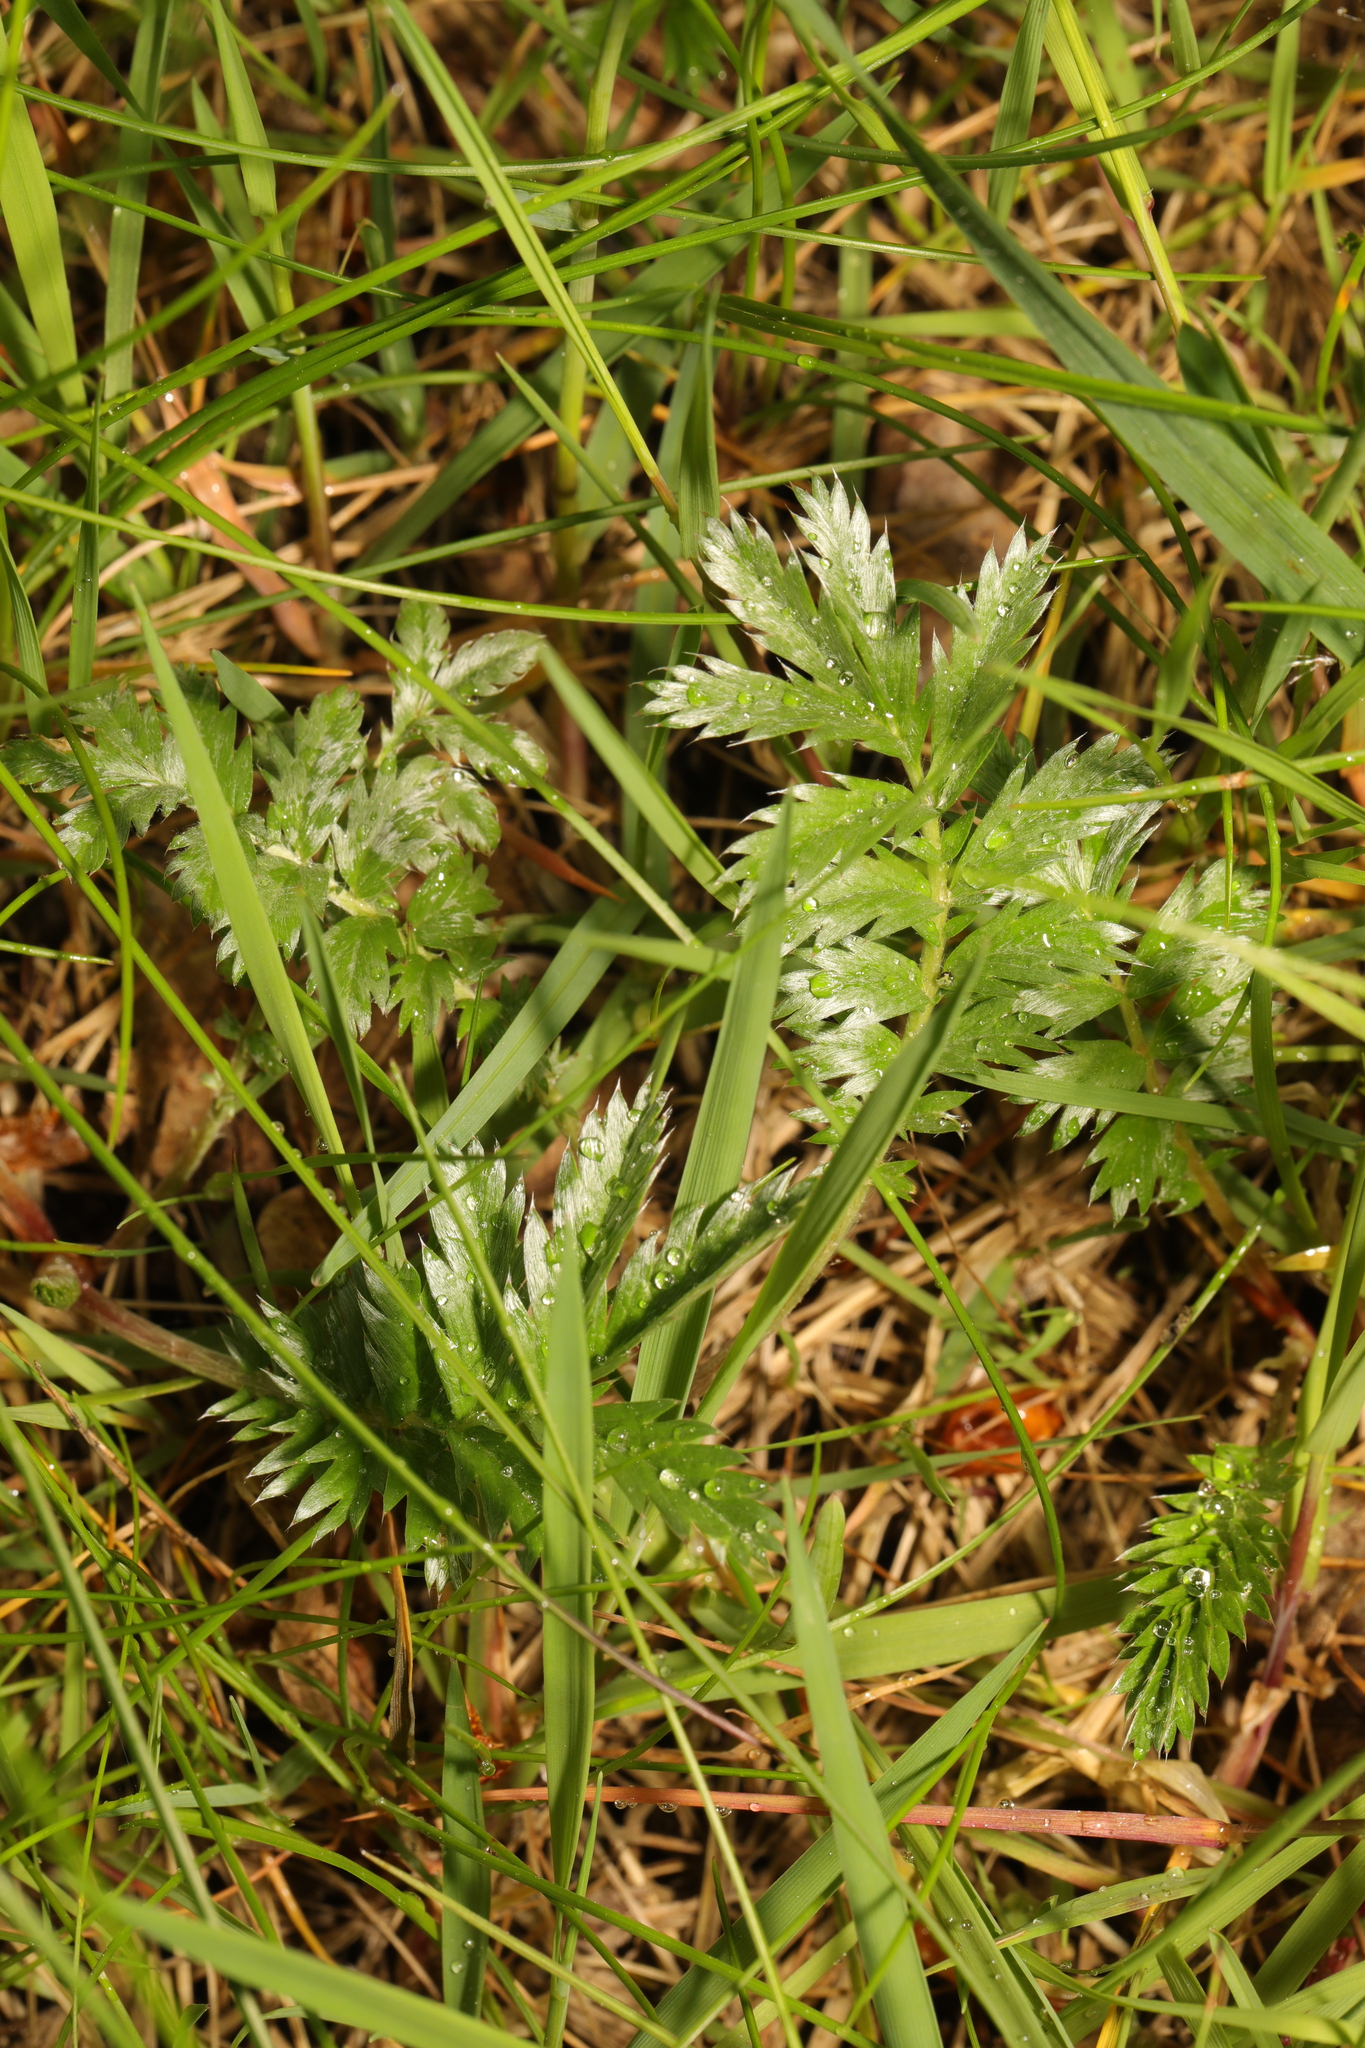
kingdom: Plantae
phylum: Tracheophyta
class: Magnoliopsida
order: Rosales
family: Rosaceae
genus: Argentina
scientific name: Argentina anserina
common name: Common silverweed
